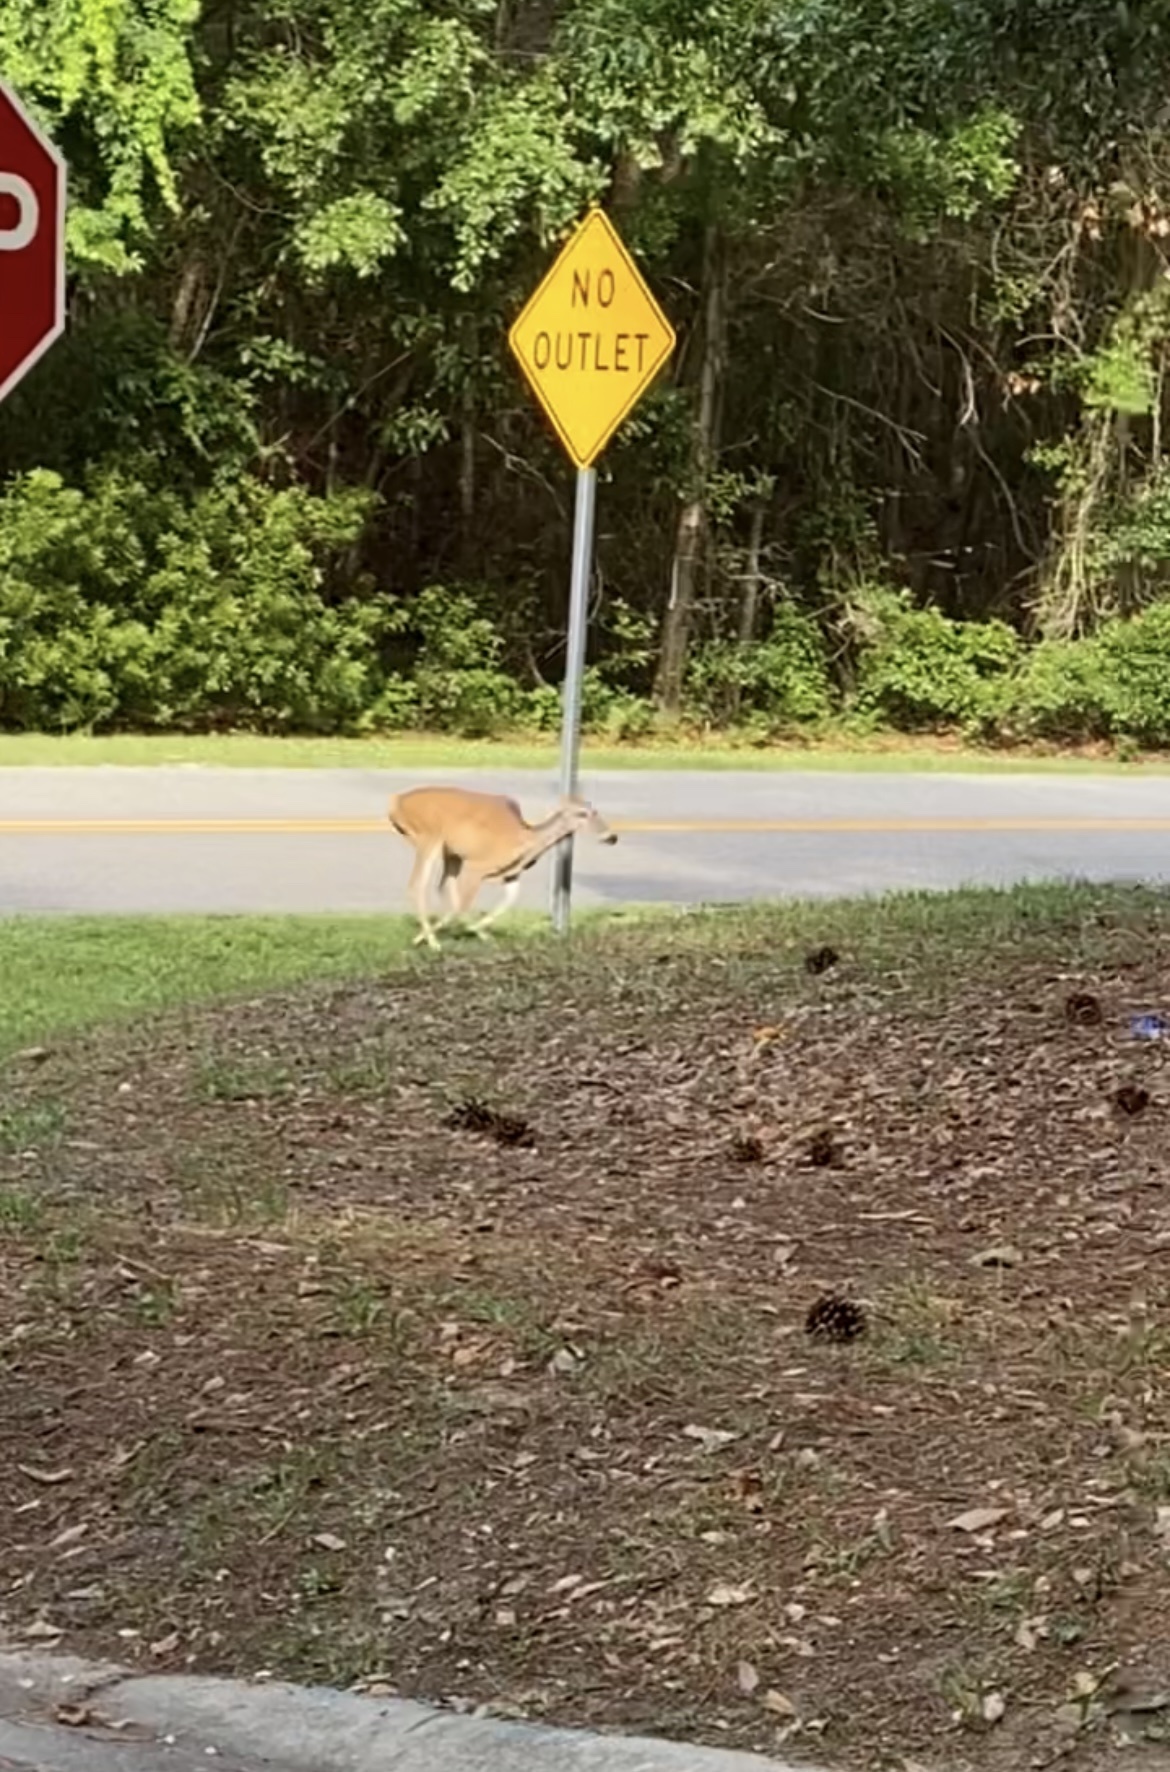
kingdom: Animalia
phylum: Chordata
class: Mammalia
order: Artiodactyla
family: Cervidae
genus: Odocoileus
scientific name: Odocoileus virginianus
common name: White-tailed deer
